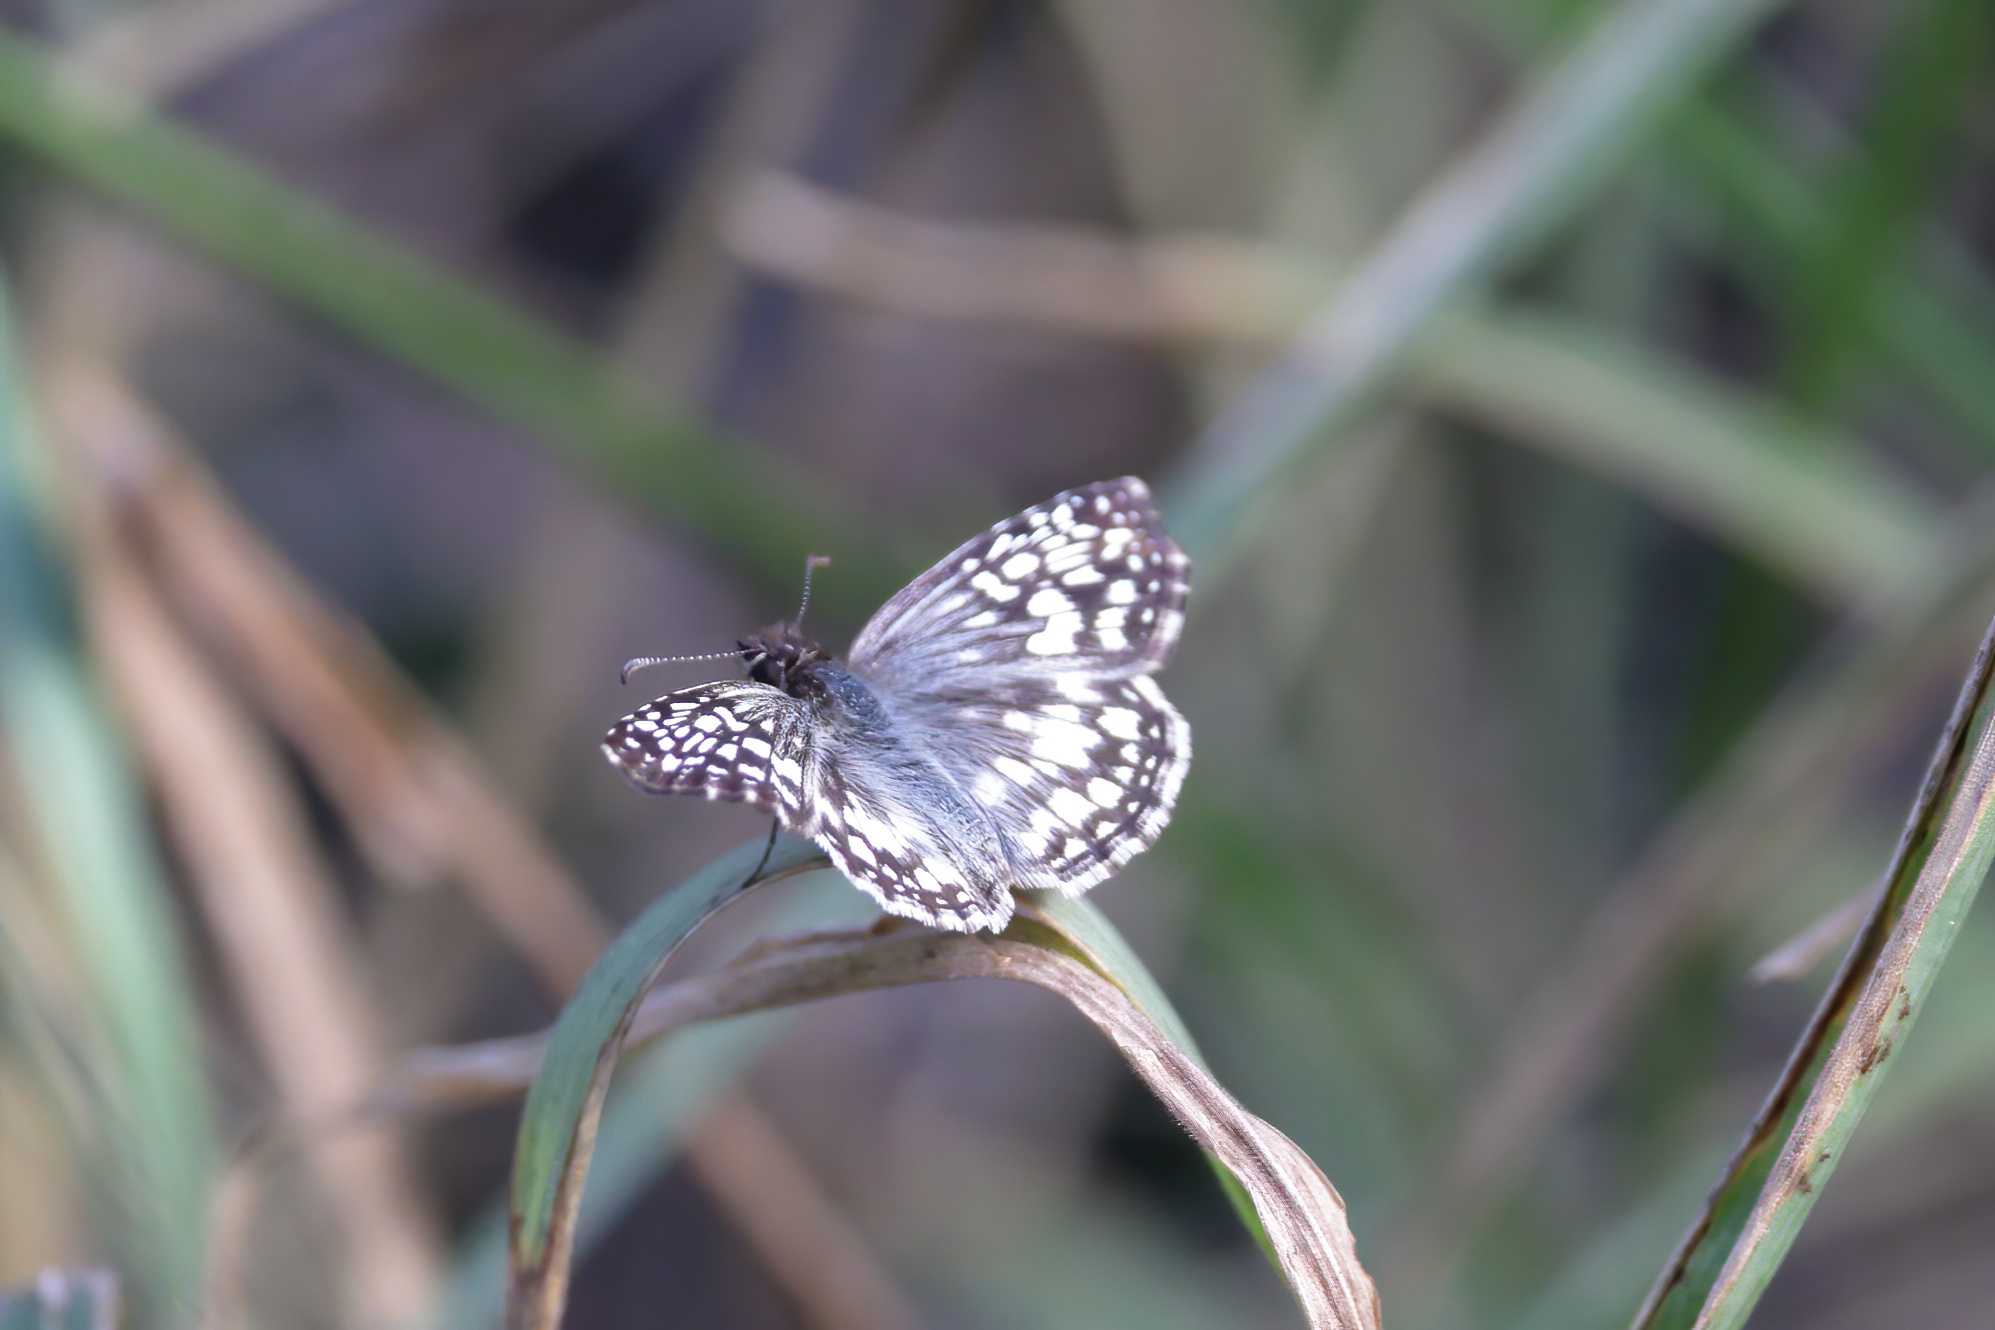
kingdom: Animalia
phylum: Arthropoda
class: Insecta
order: Lepidoptera
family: Hesperiidae
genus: Pyrgus
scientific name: Pyrgus oileus
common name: Tropical checkered-skipper
